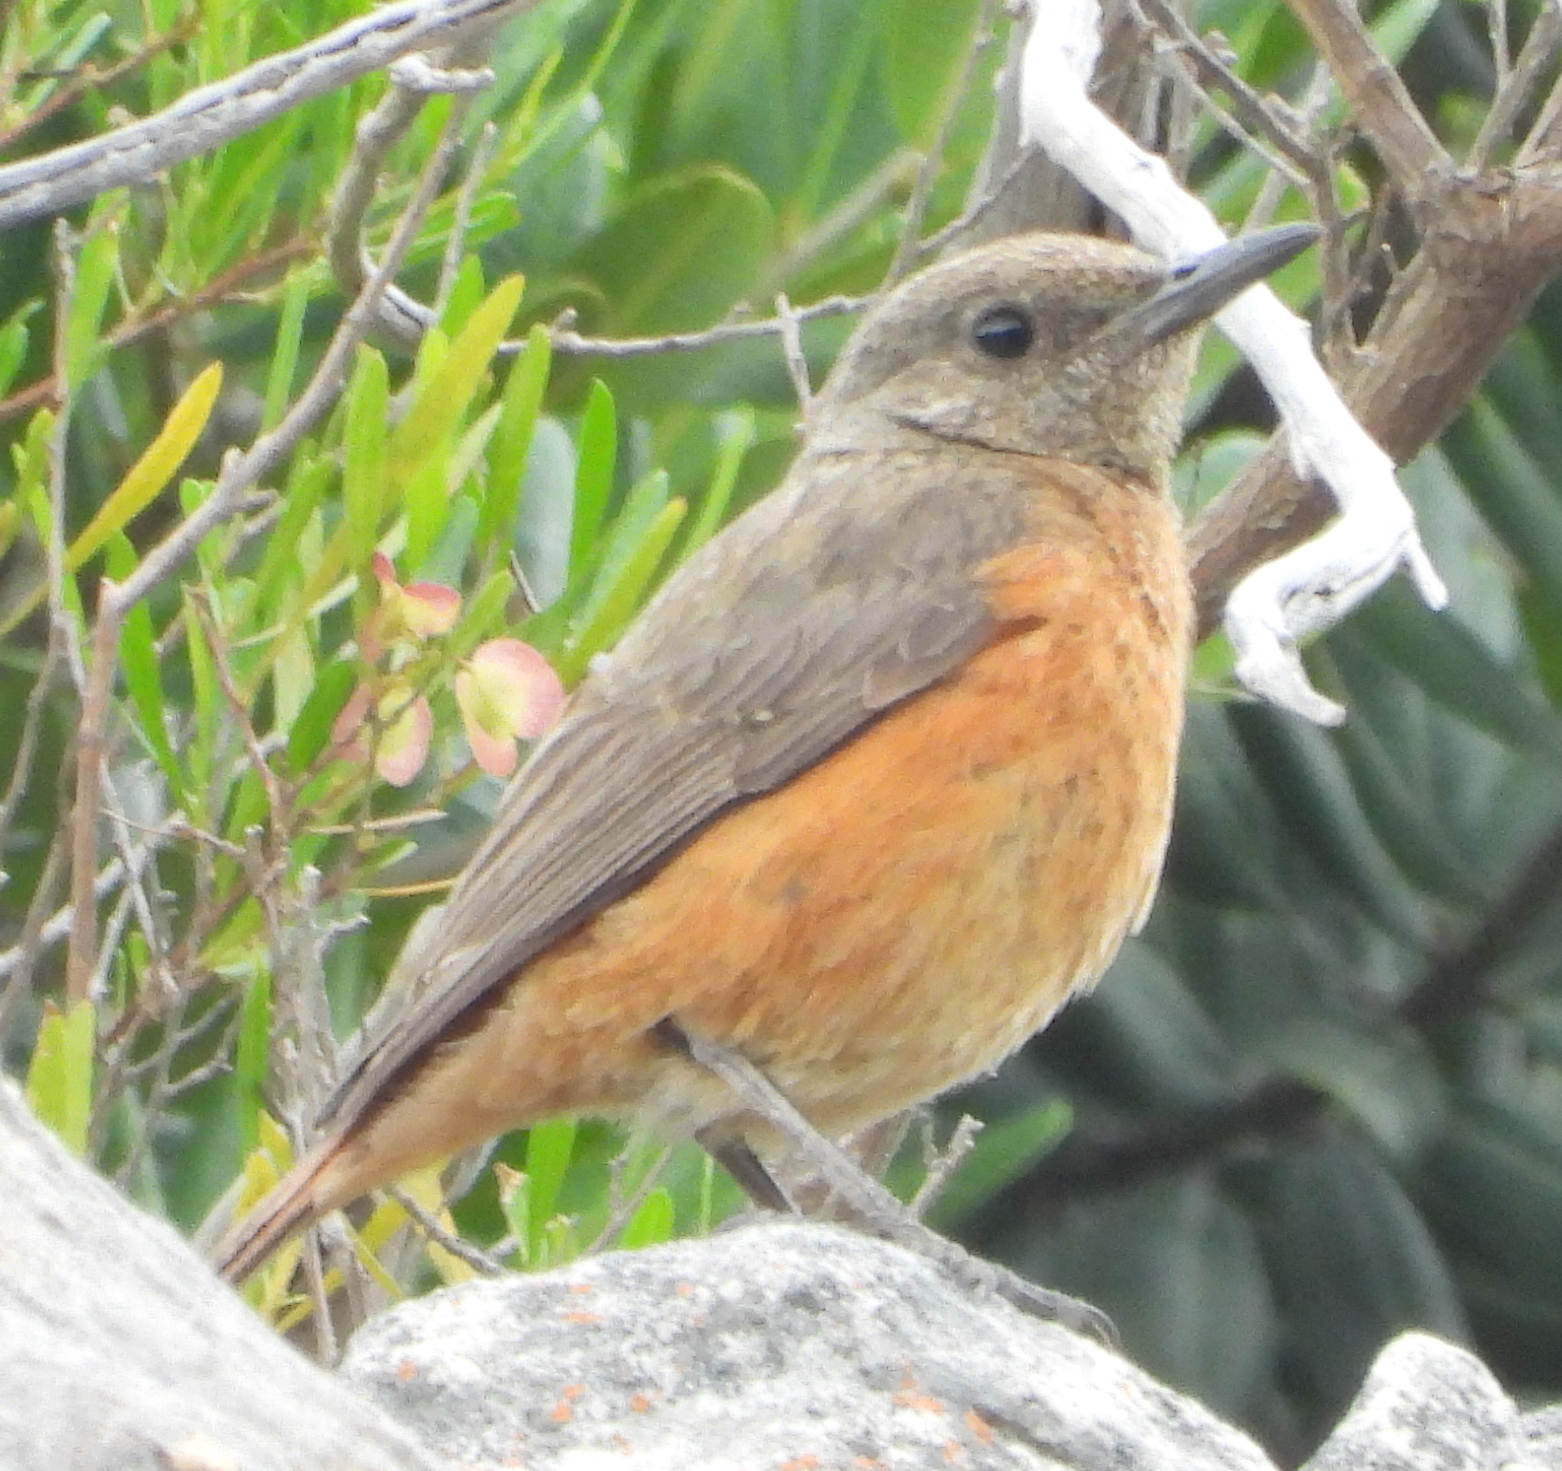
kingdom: Animalia
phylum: Chordata
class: Aves
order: Passeriformes
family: Muscicapidae
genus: Monticola
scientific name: Monticola rupestris
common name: Cape rock thrush
